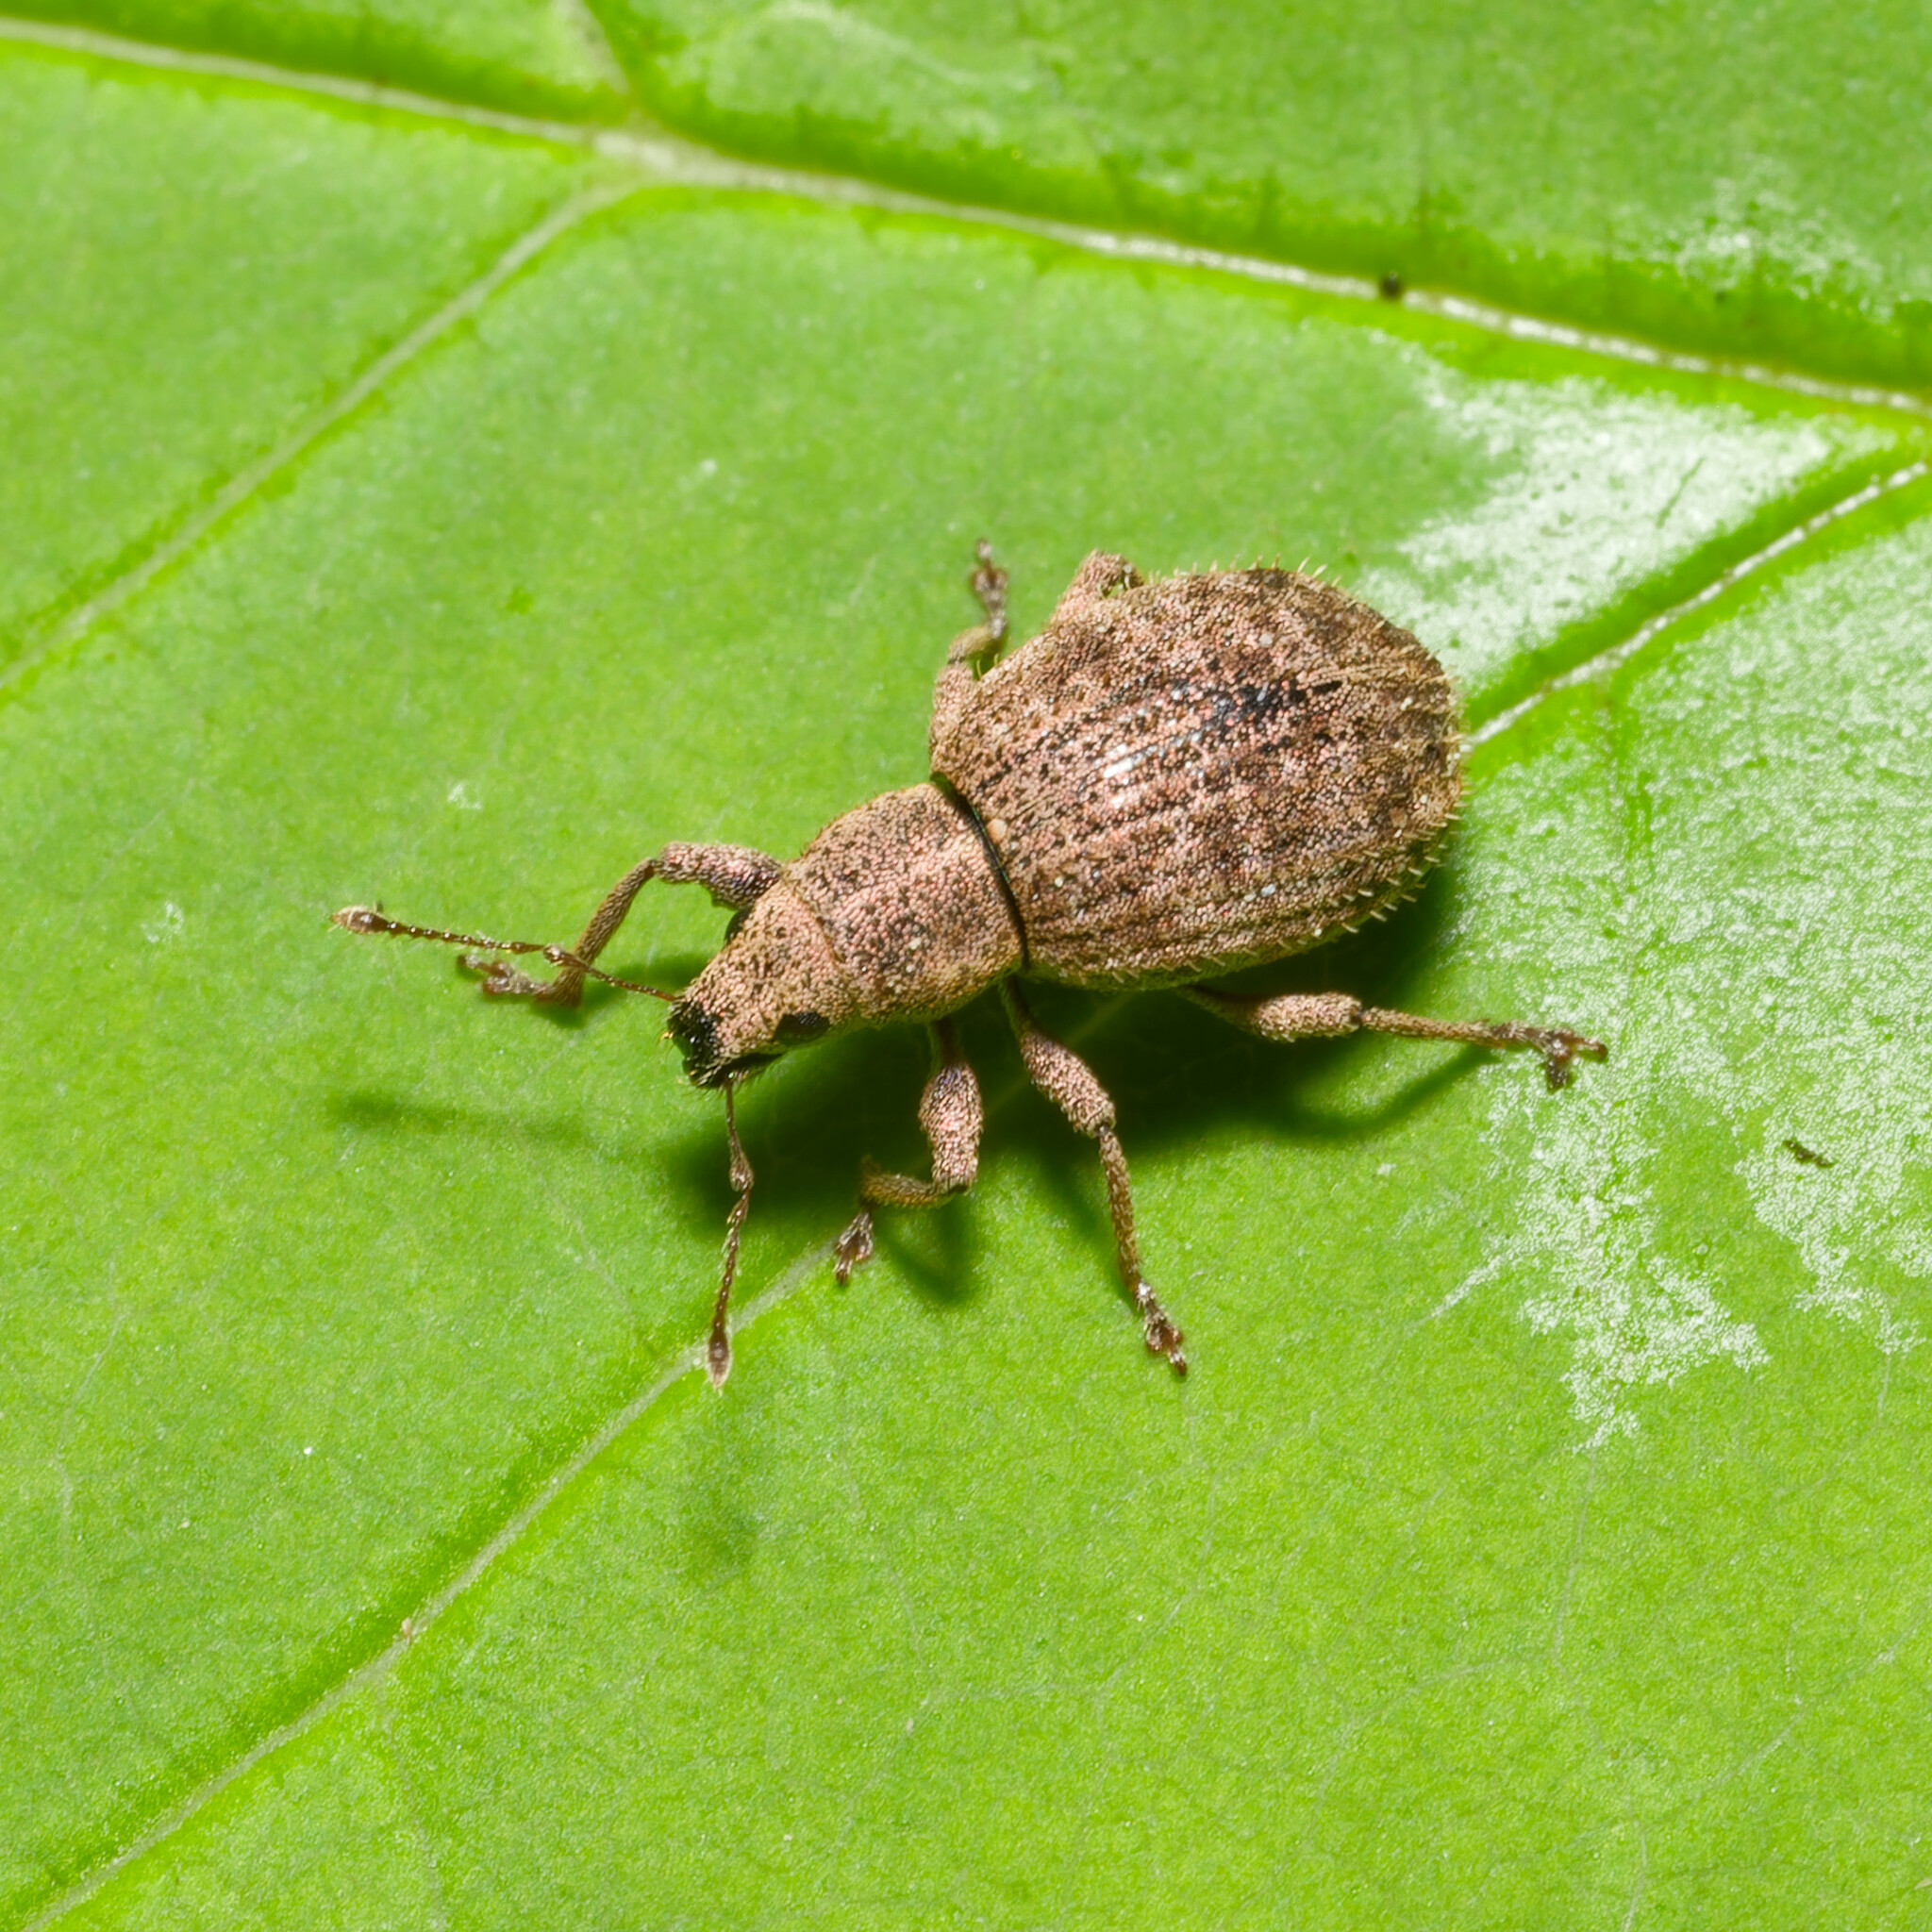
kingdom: Animalia
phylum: Arthropoda
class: Insecta
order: Coleoptera
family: Curculionidae
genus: Sciaphilus
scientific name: Sciaphilus asperatus
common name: Weevil
